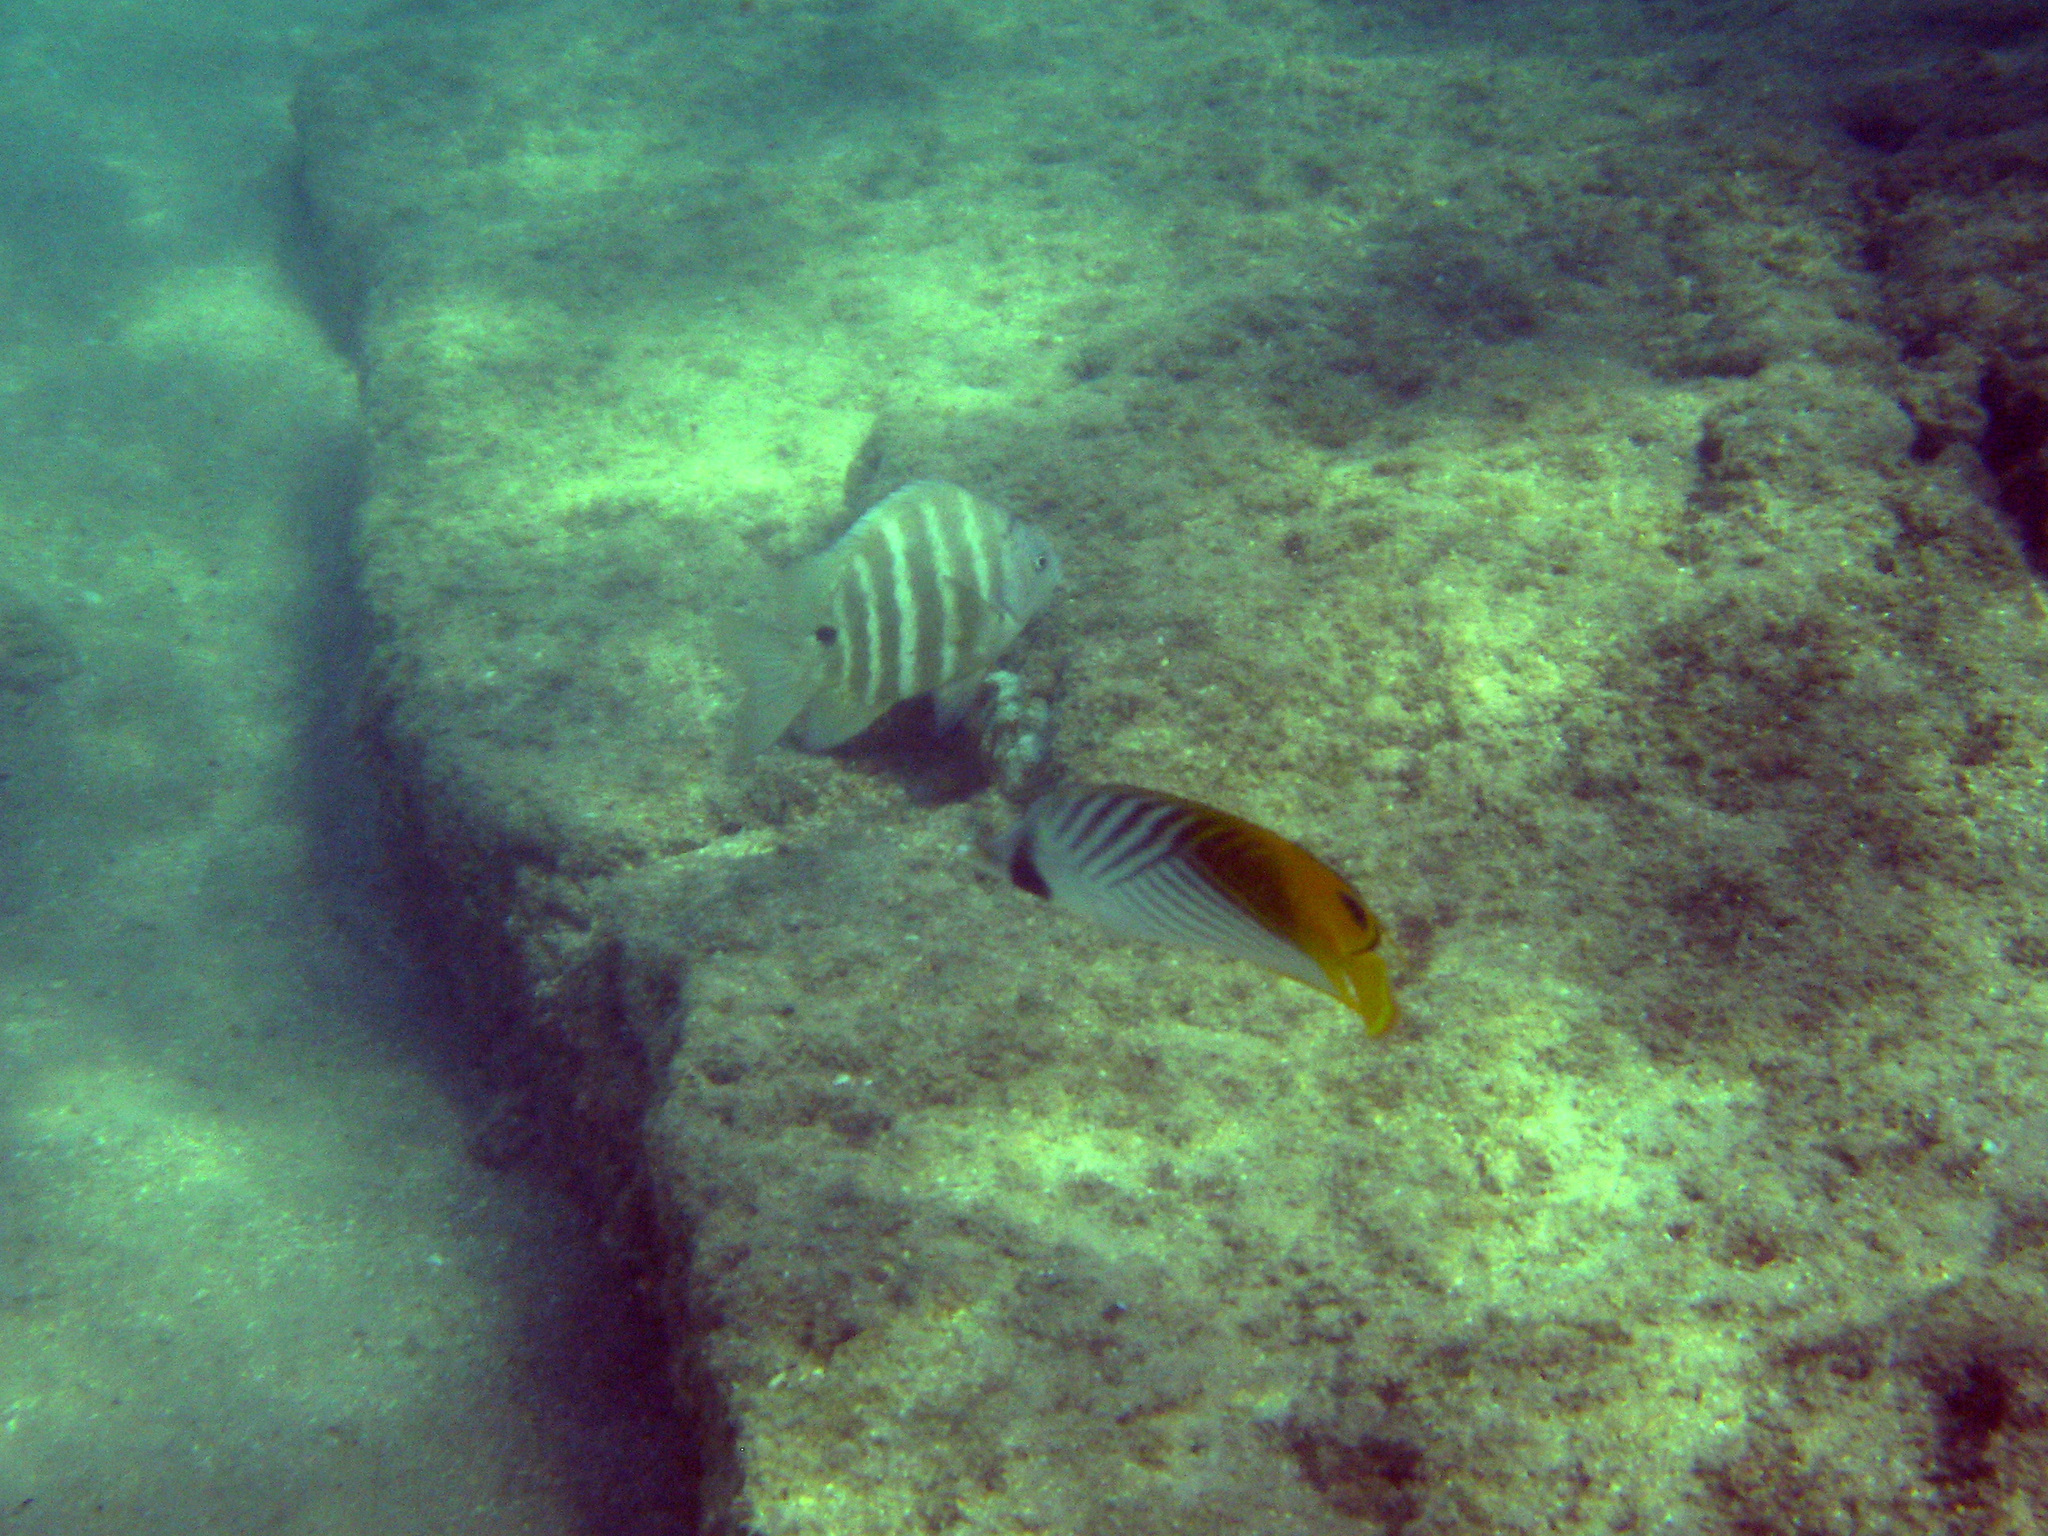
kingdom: Animalia
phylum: Chordata
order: Perciformes
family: Chaetodontidae
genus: Chaetodon
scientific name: Chaetodon auriga
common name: Threadfin butterflyfish
